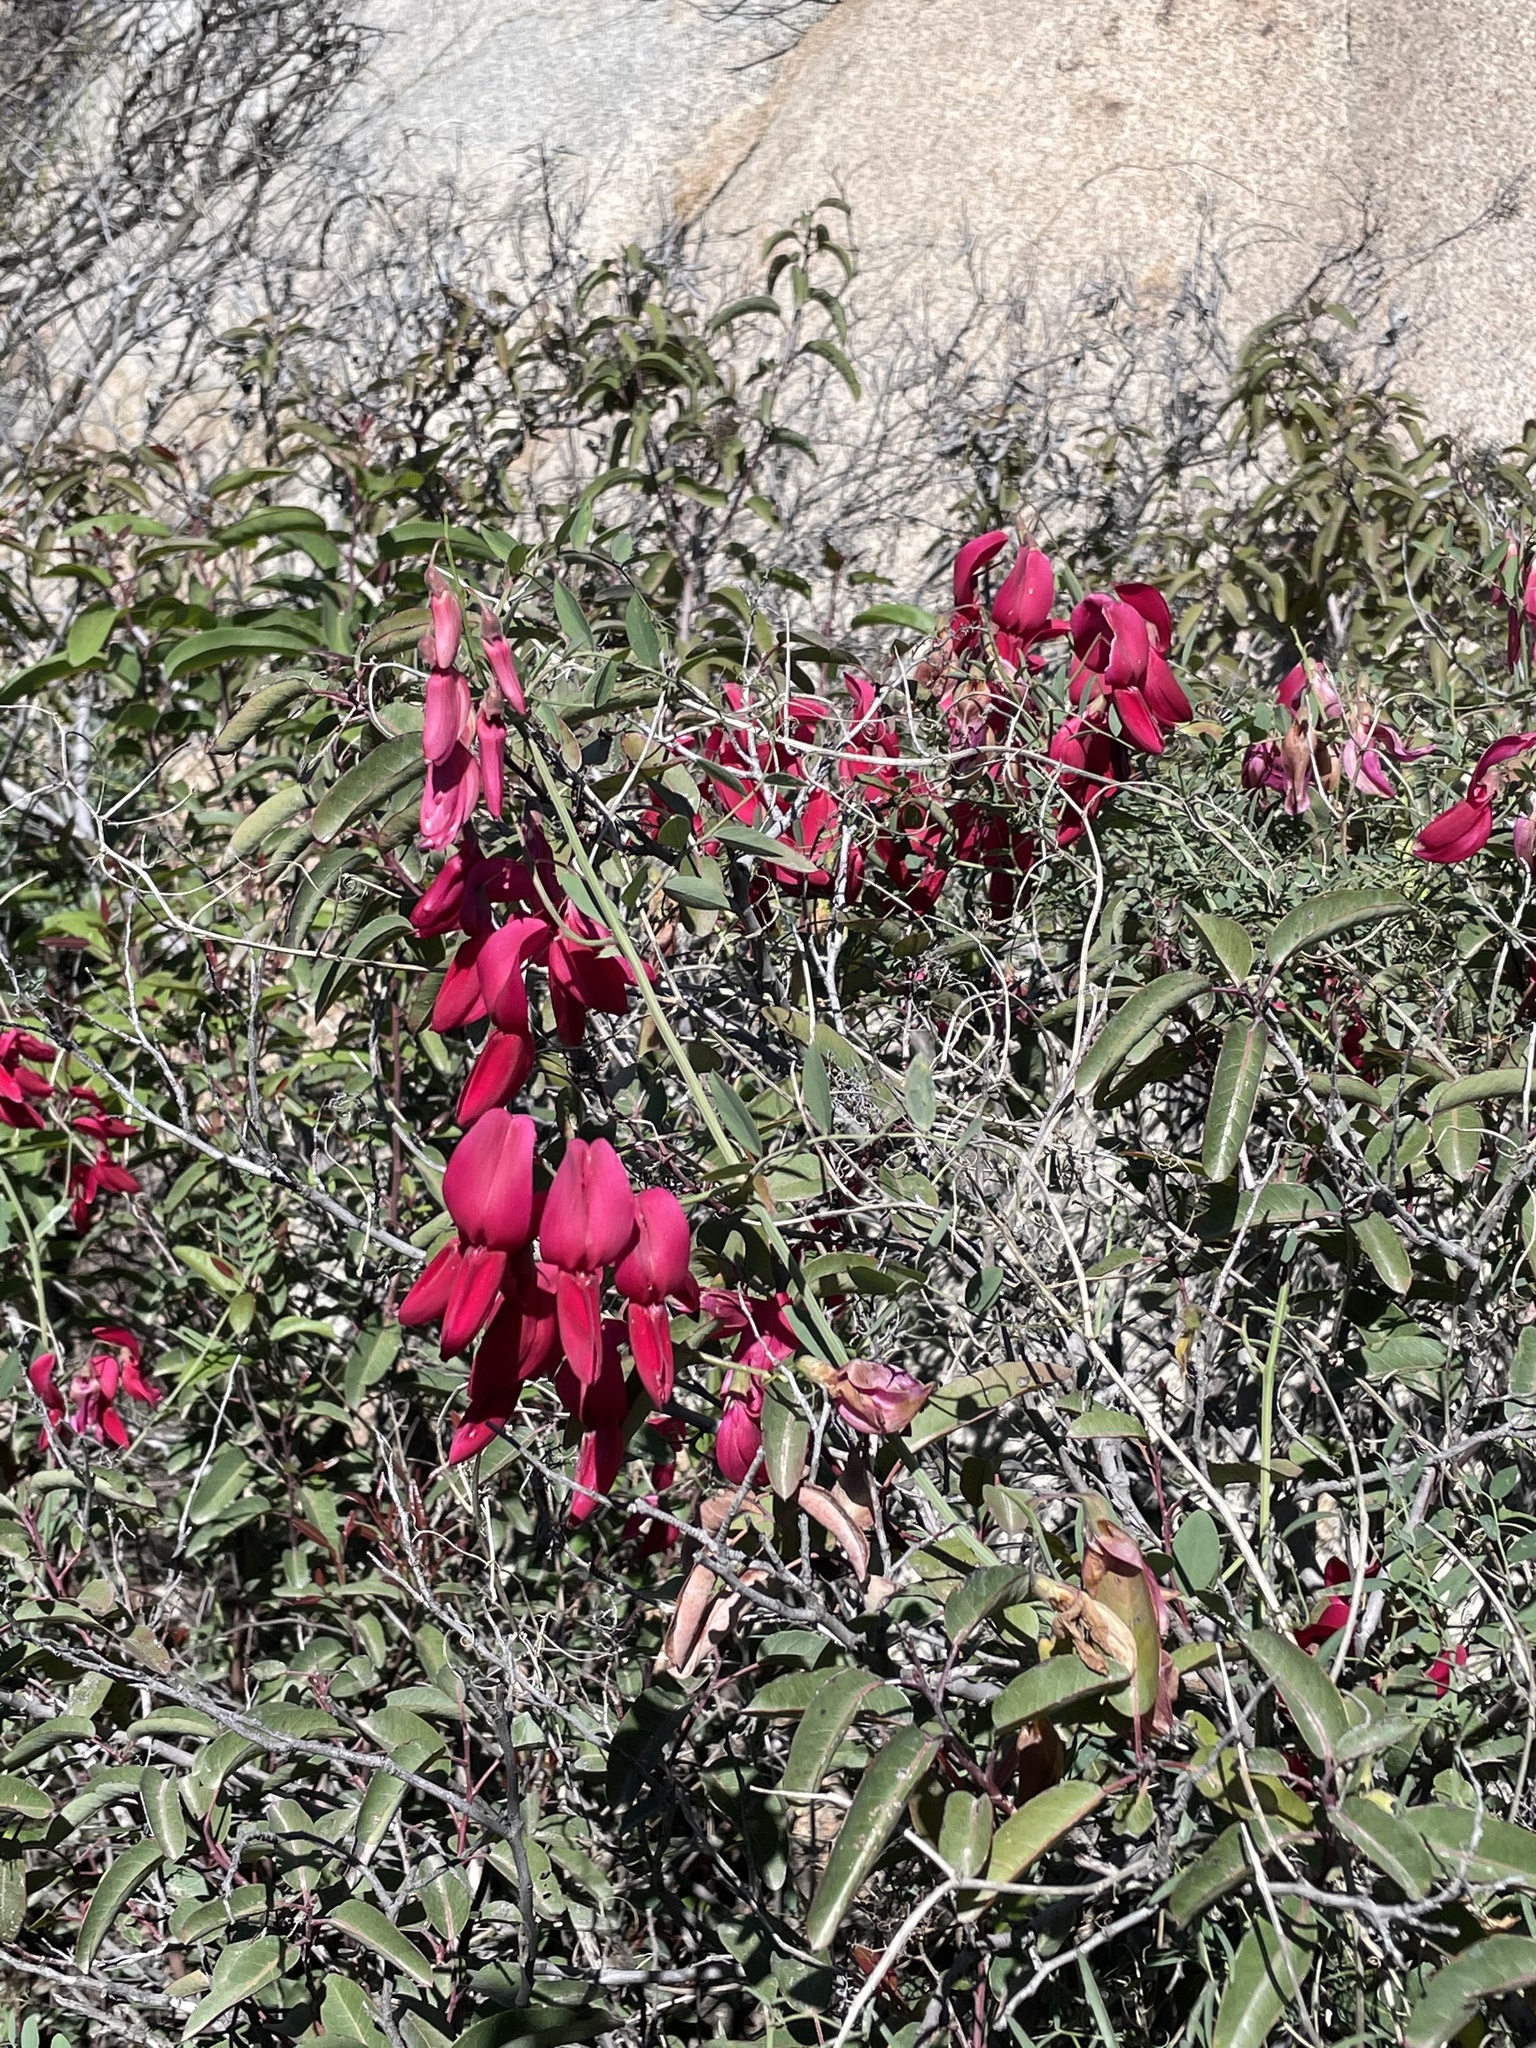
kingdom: Plantae
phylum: Tracheophyta
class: Magnoliopsida
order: Fabales
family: Fabaceae
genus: Lathyrus
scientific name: Lathyrus splendens
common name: Campo-pea
